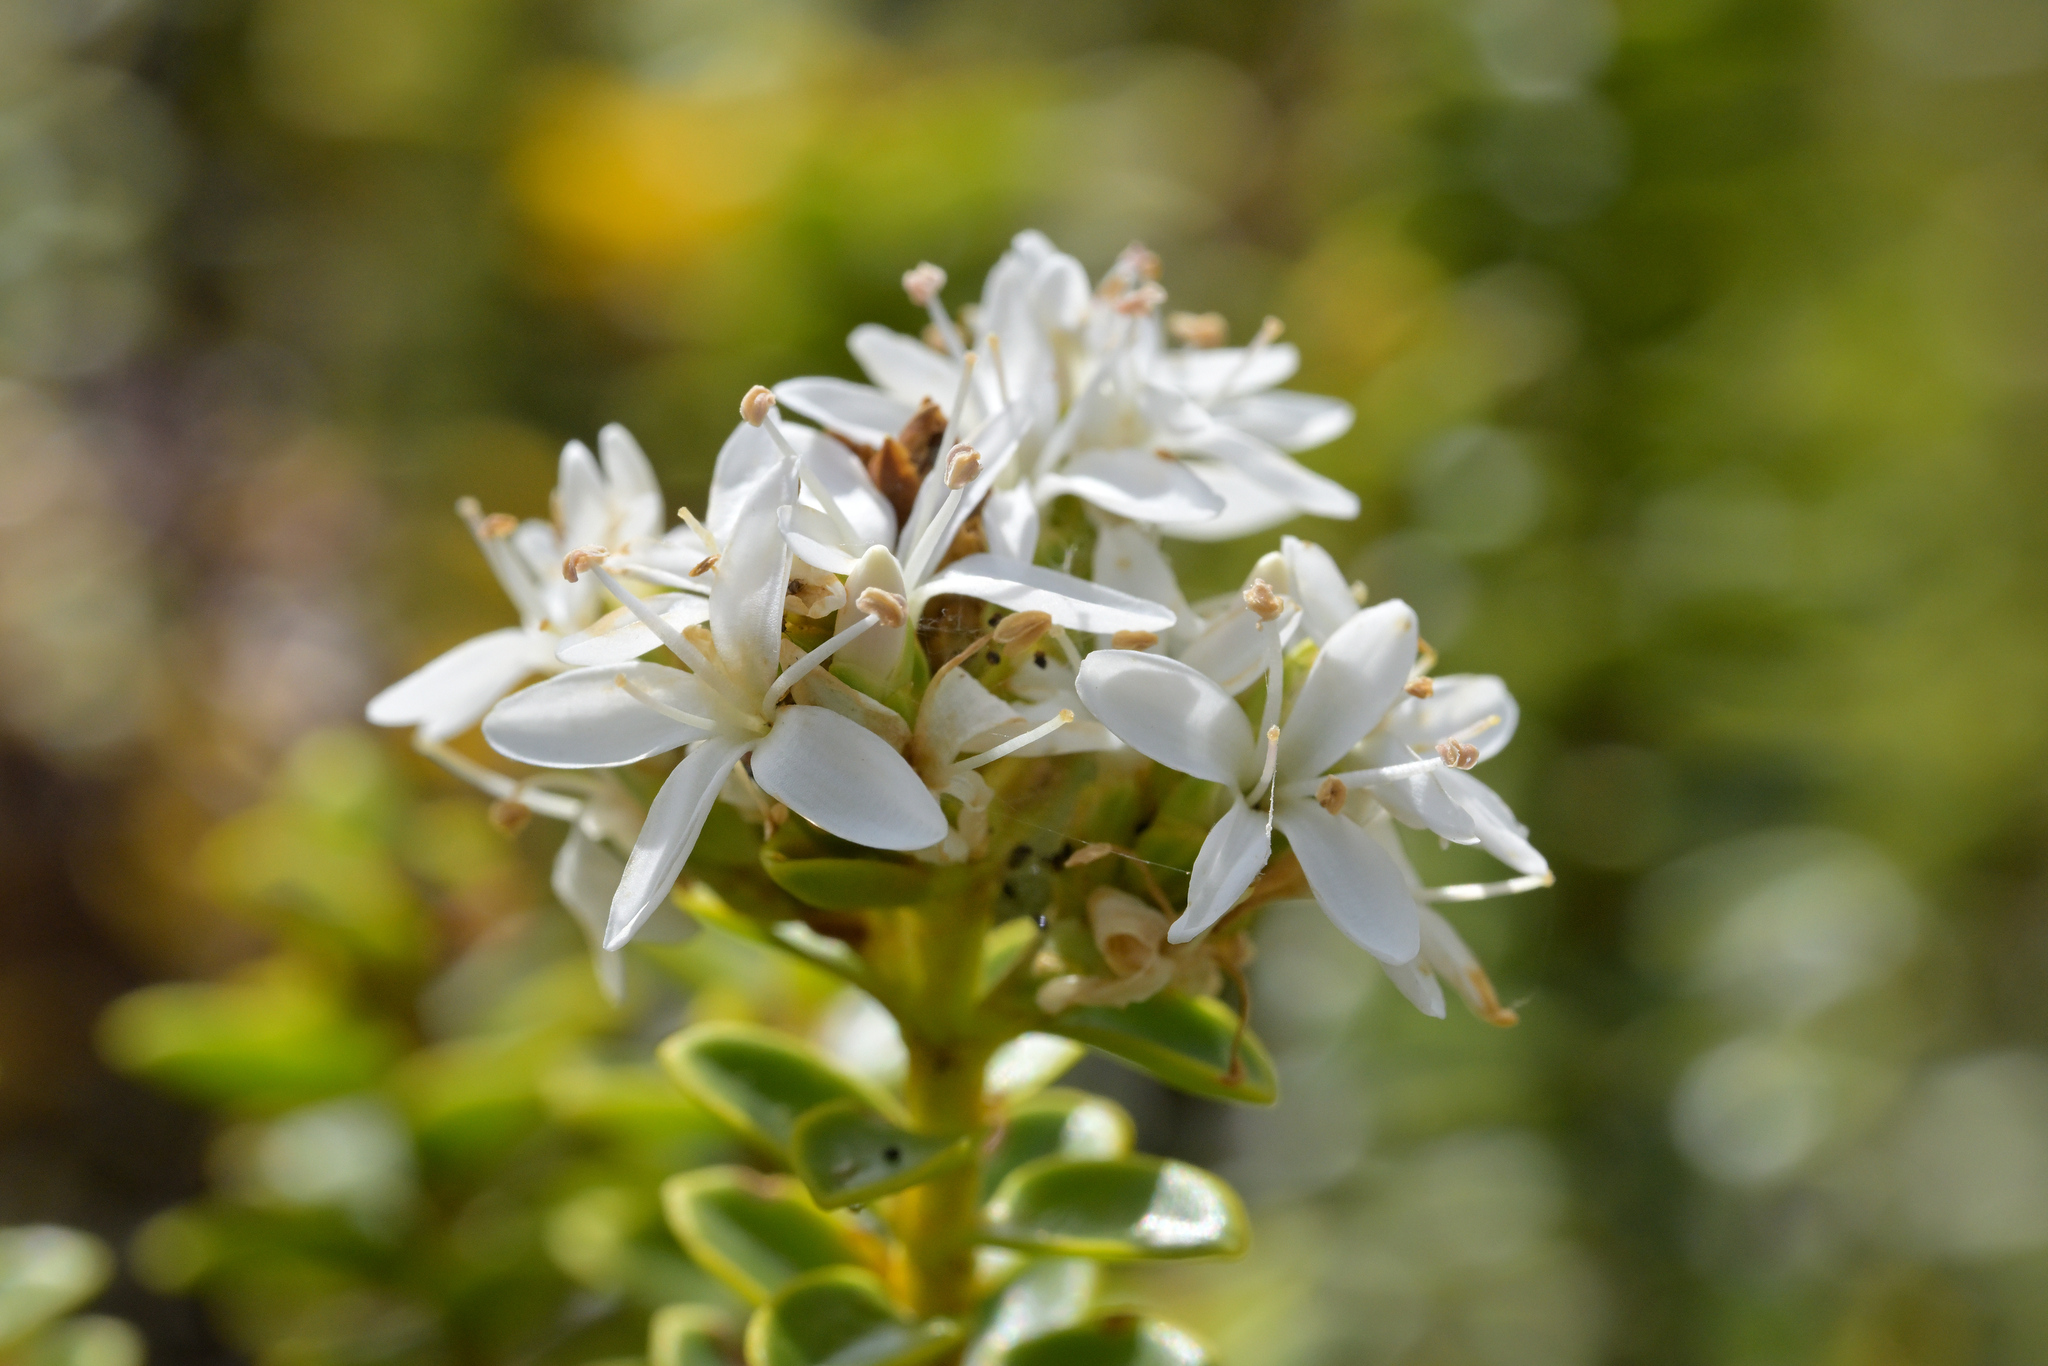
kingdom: Plantae
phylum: Tracheophyta
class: Magnoliopsida
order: Lamiales
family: Plantaginaceae
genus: Veronica
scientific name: Veronica odora
